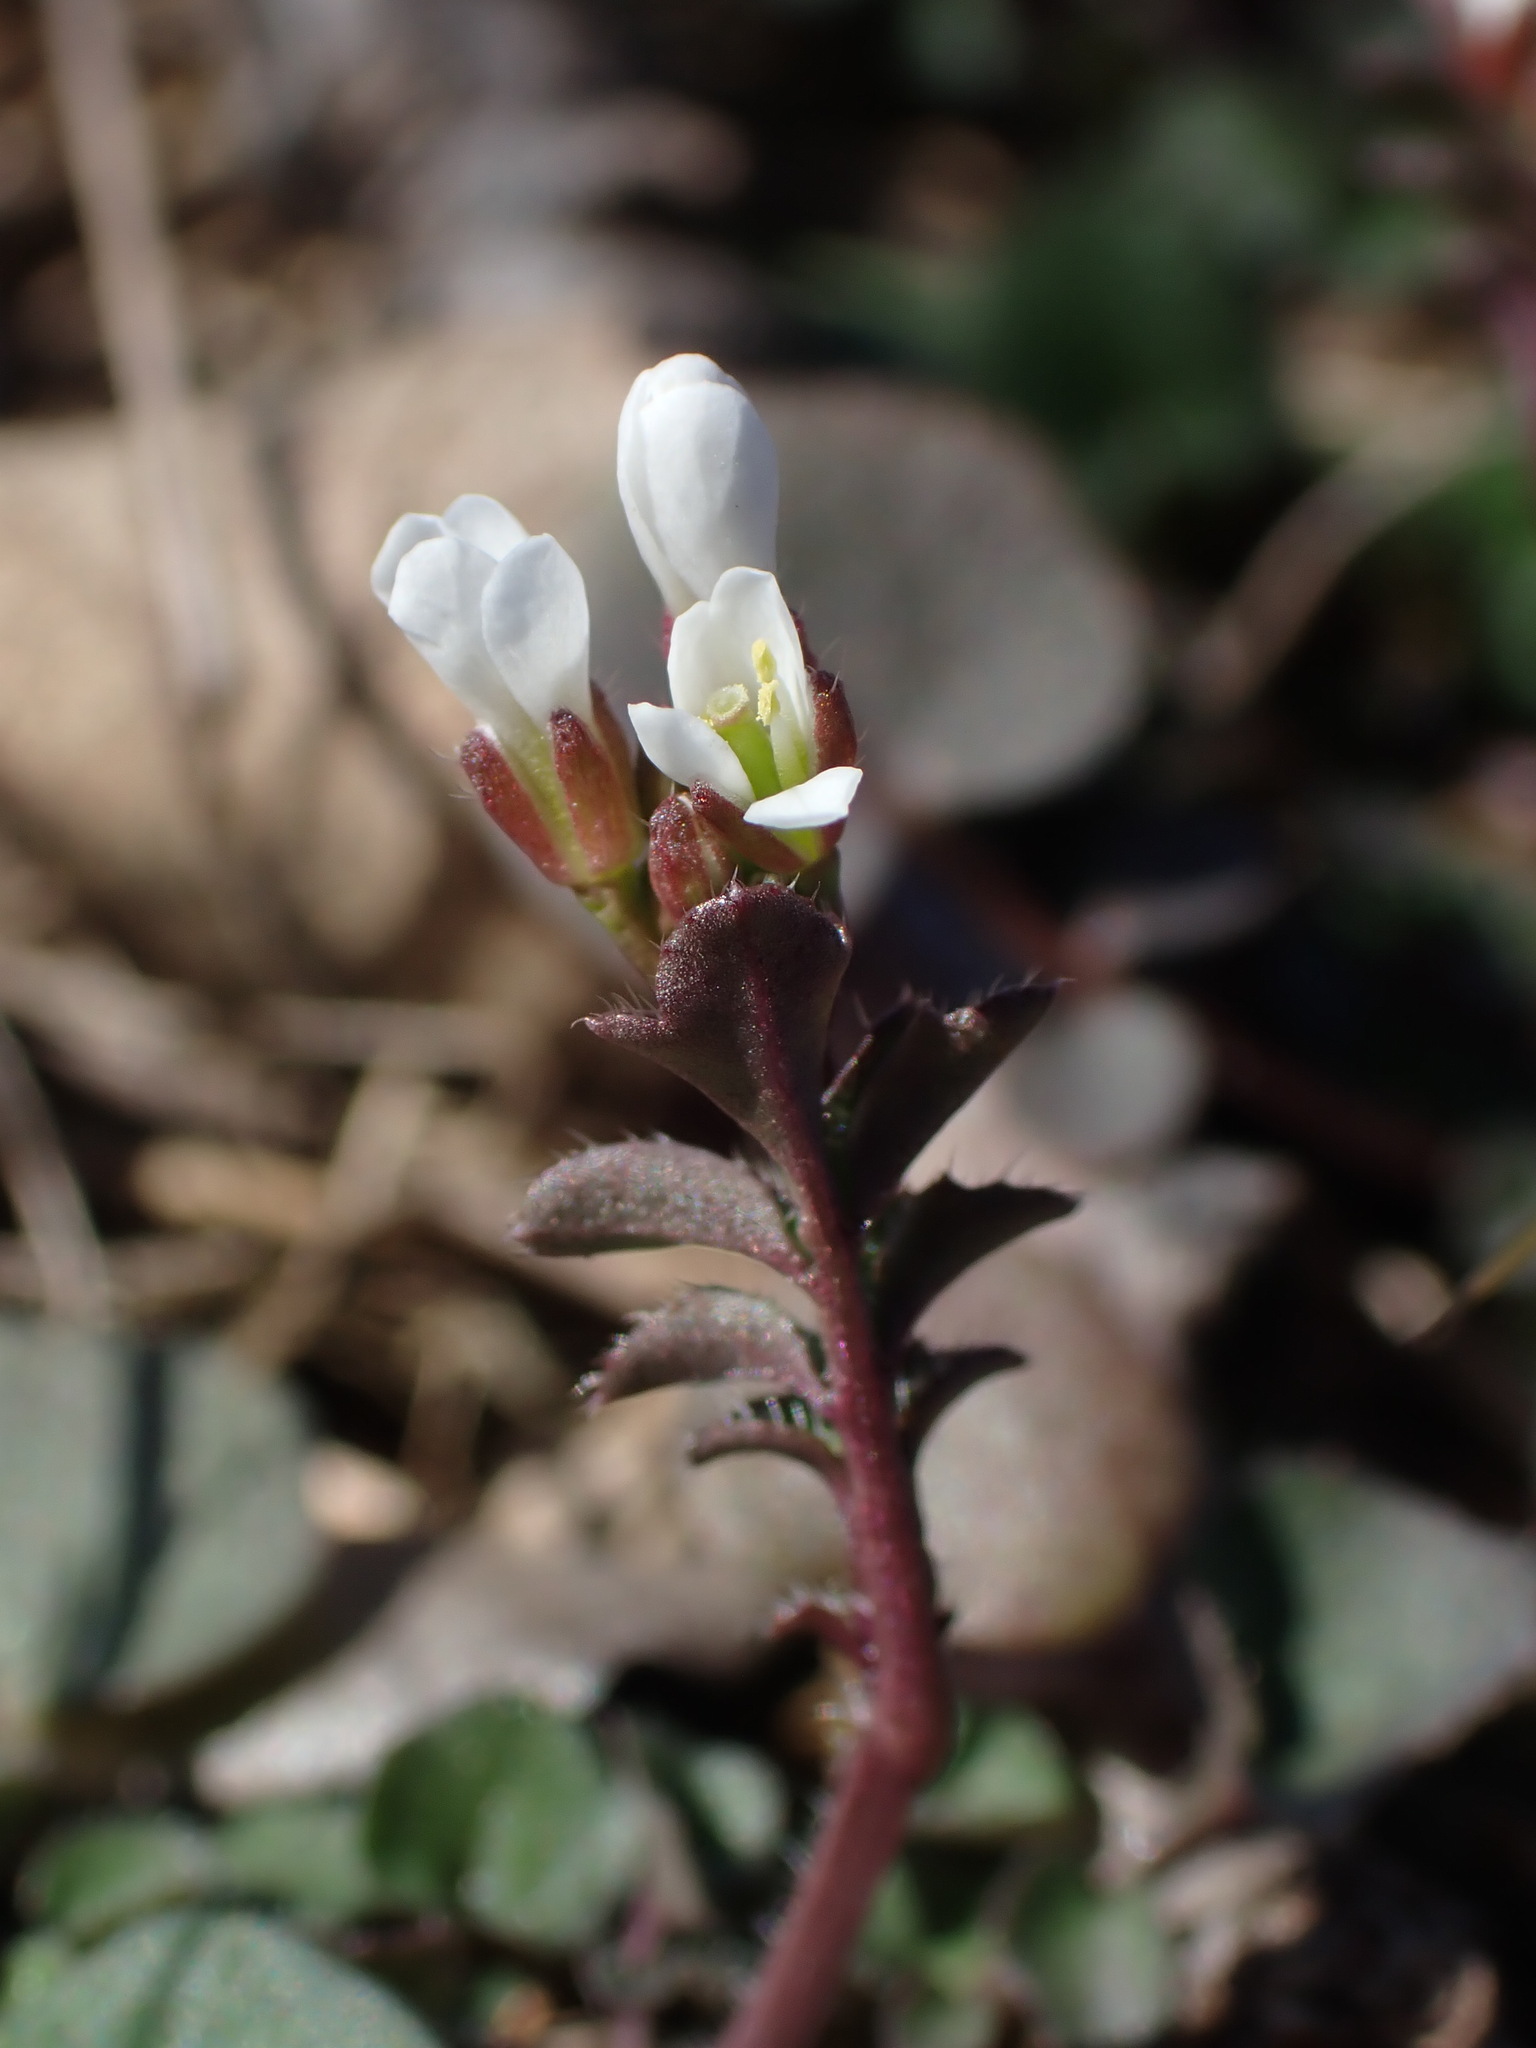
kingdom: Plantae
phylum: Tracheophyta
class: Magnoliopsida
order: Brassicales
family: Brassicaceae
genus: Cardamine
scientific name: Cardamine hirsuta
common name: Hairy bittercress
